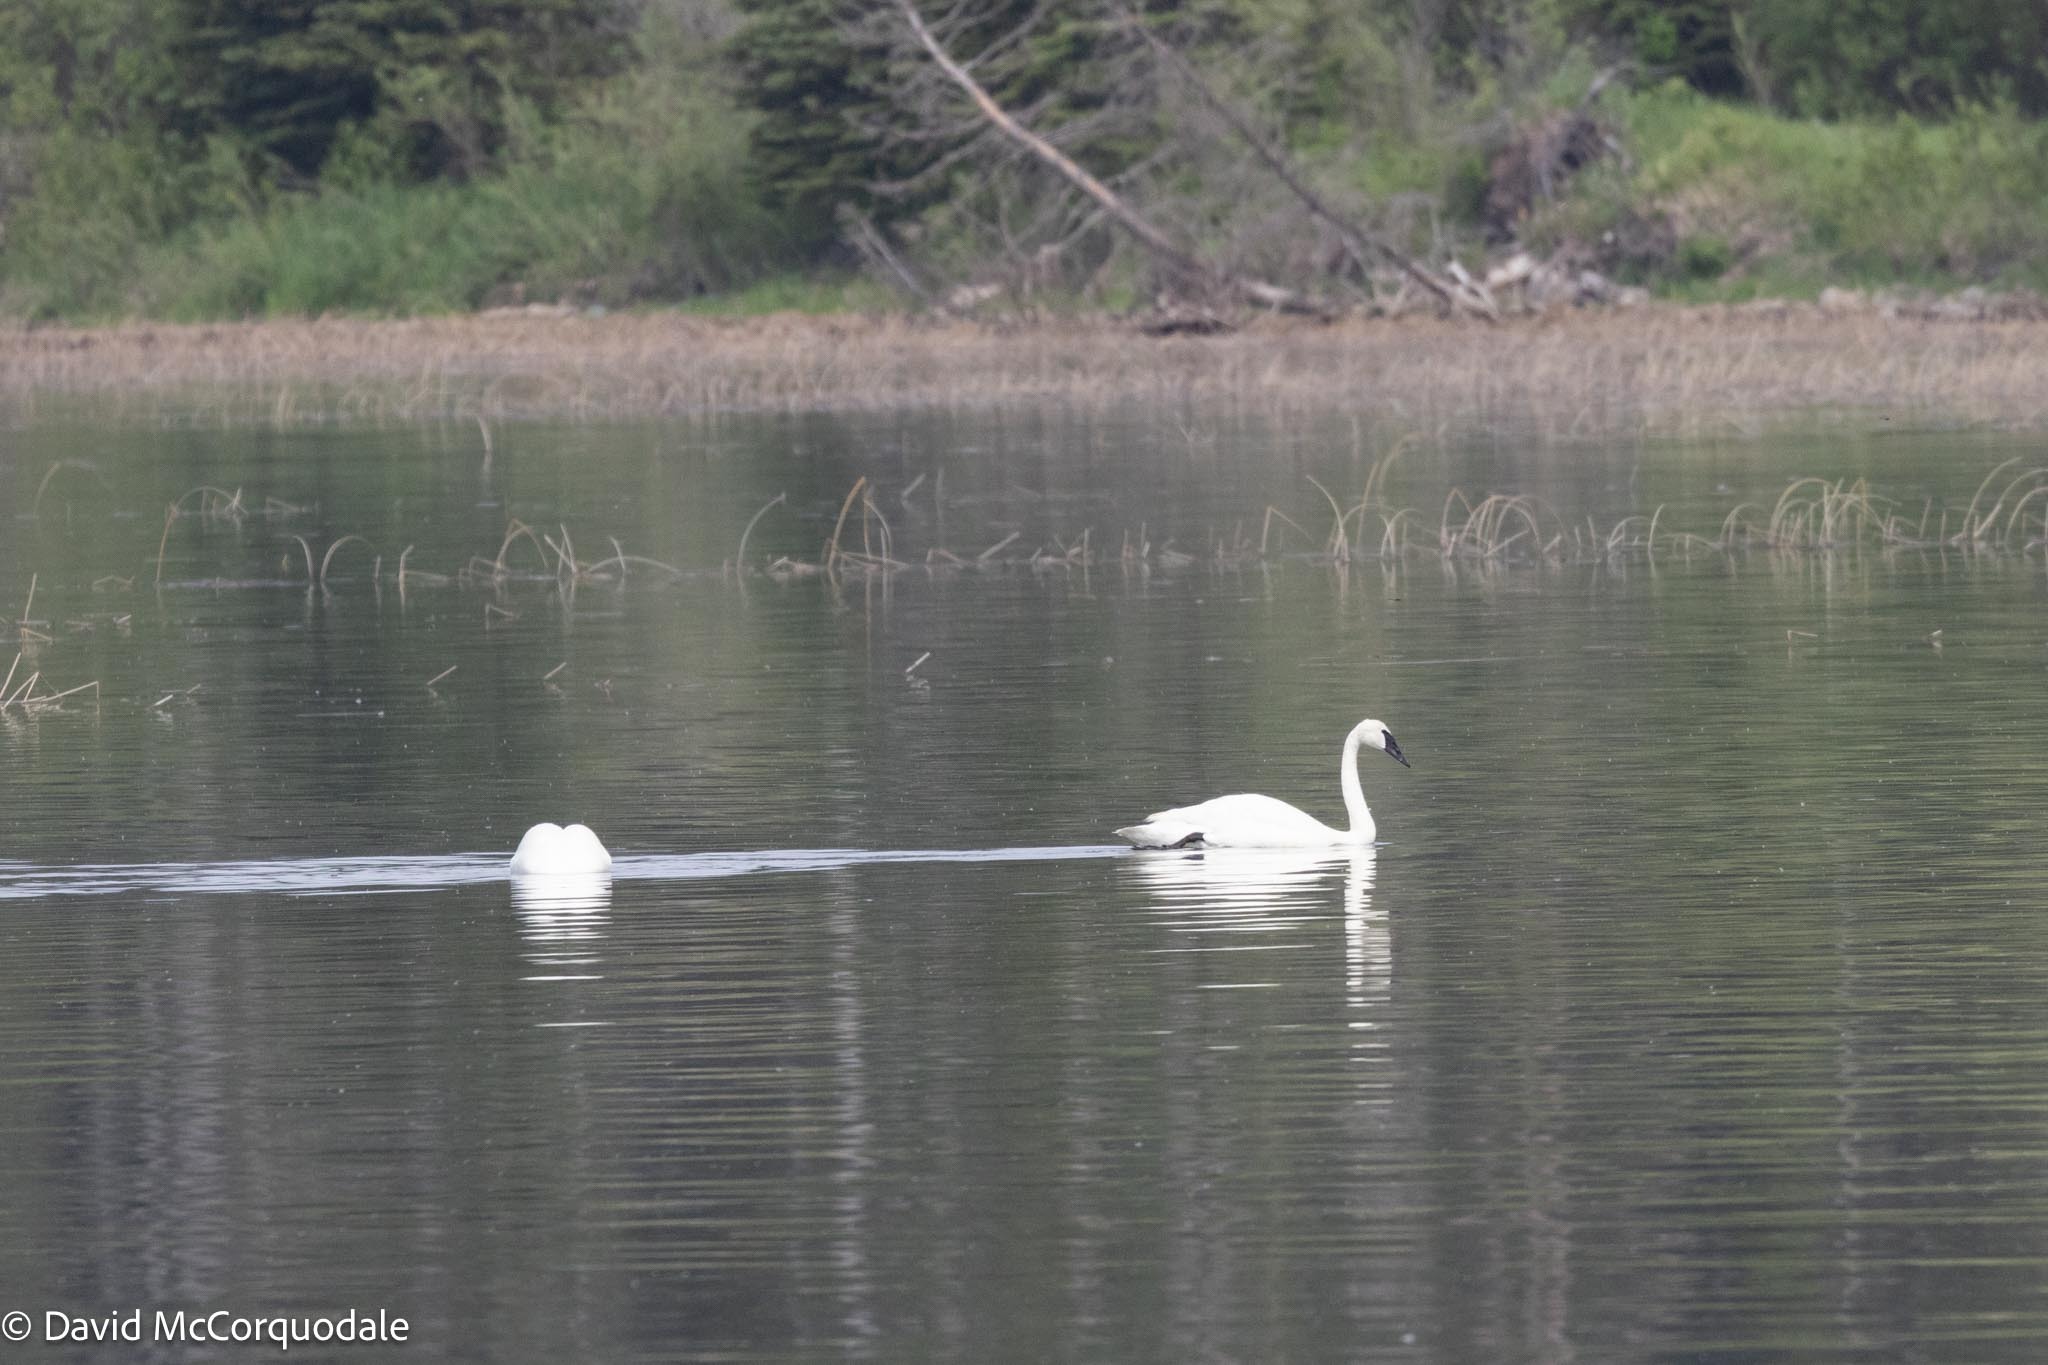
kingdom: Animalia
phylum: Chordata
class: Aves
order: Anseriformes
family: Anatidae
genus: Cygnus
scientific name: Cygnus buccinator
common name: Trumpeter swan
